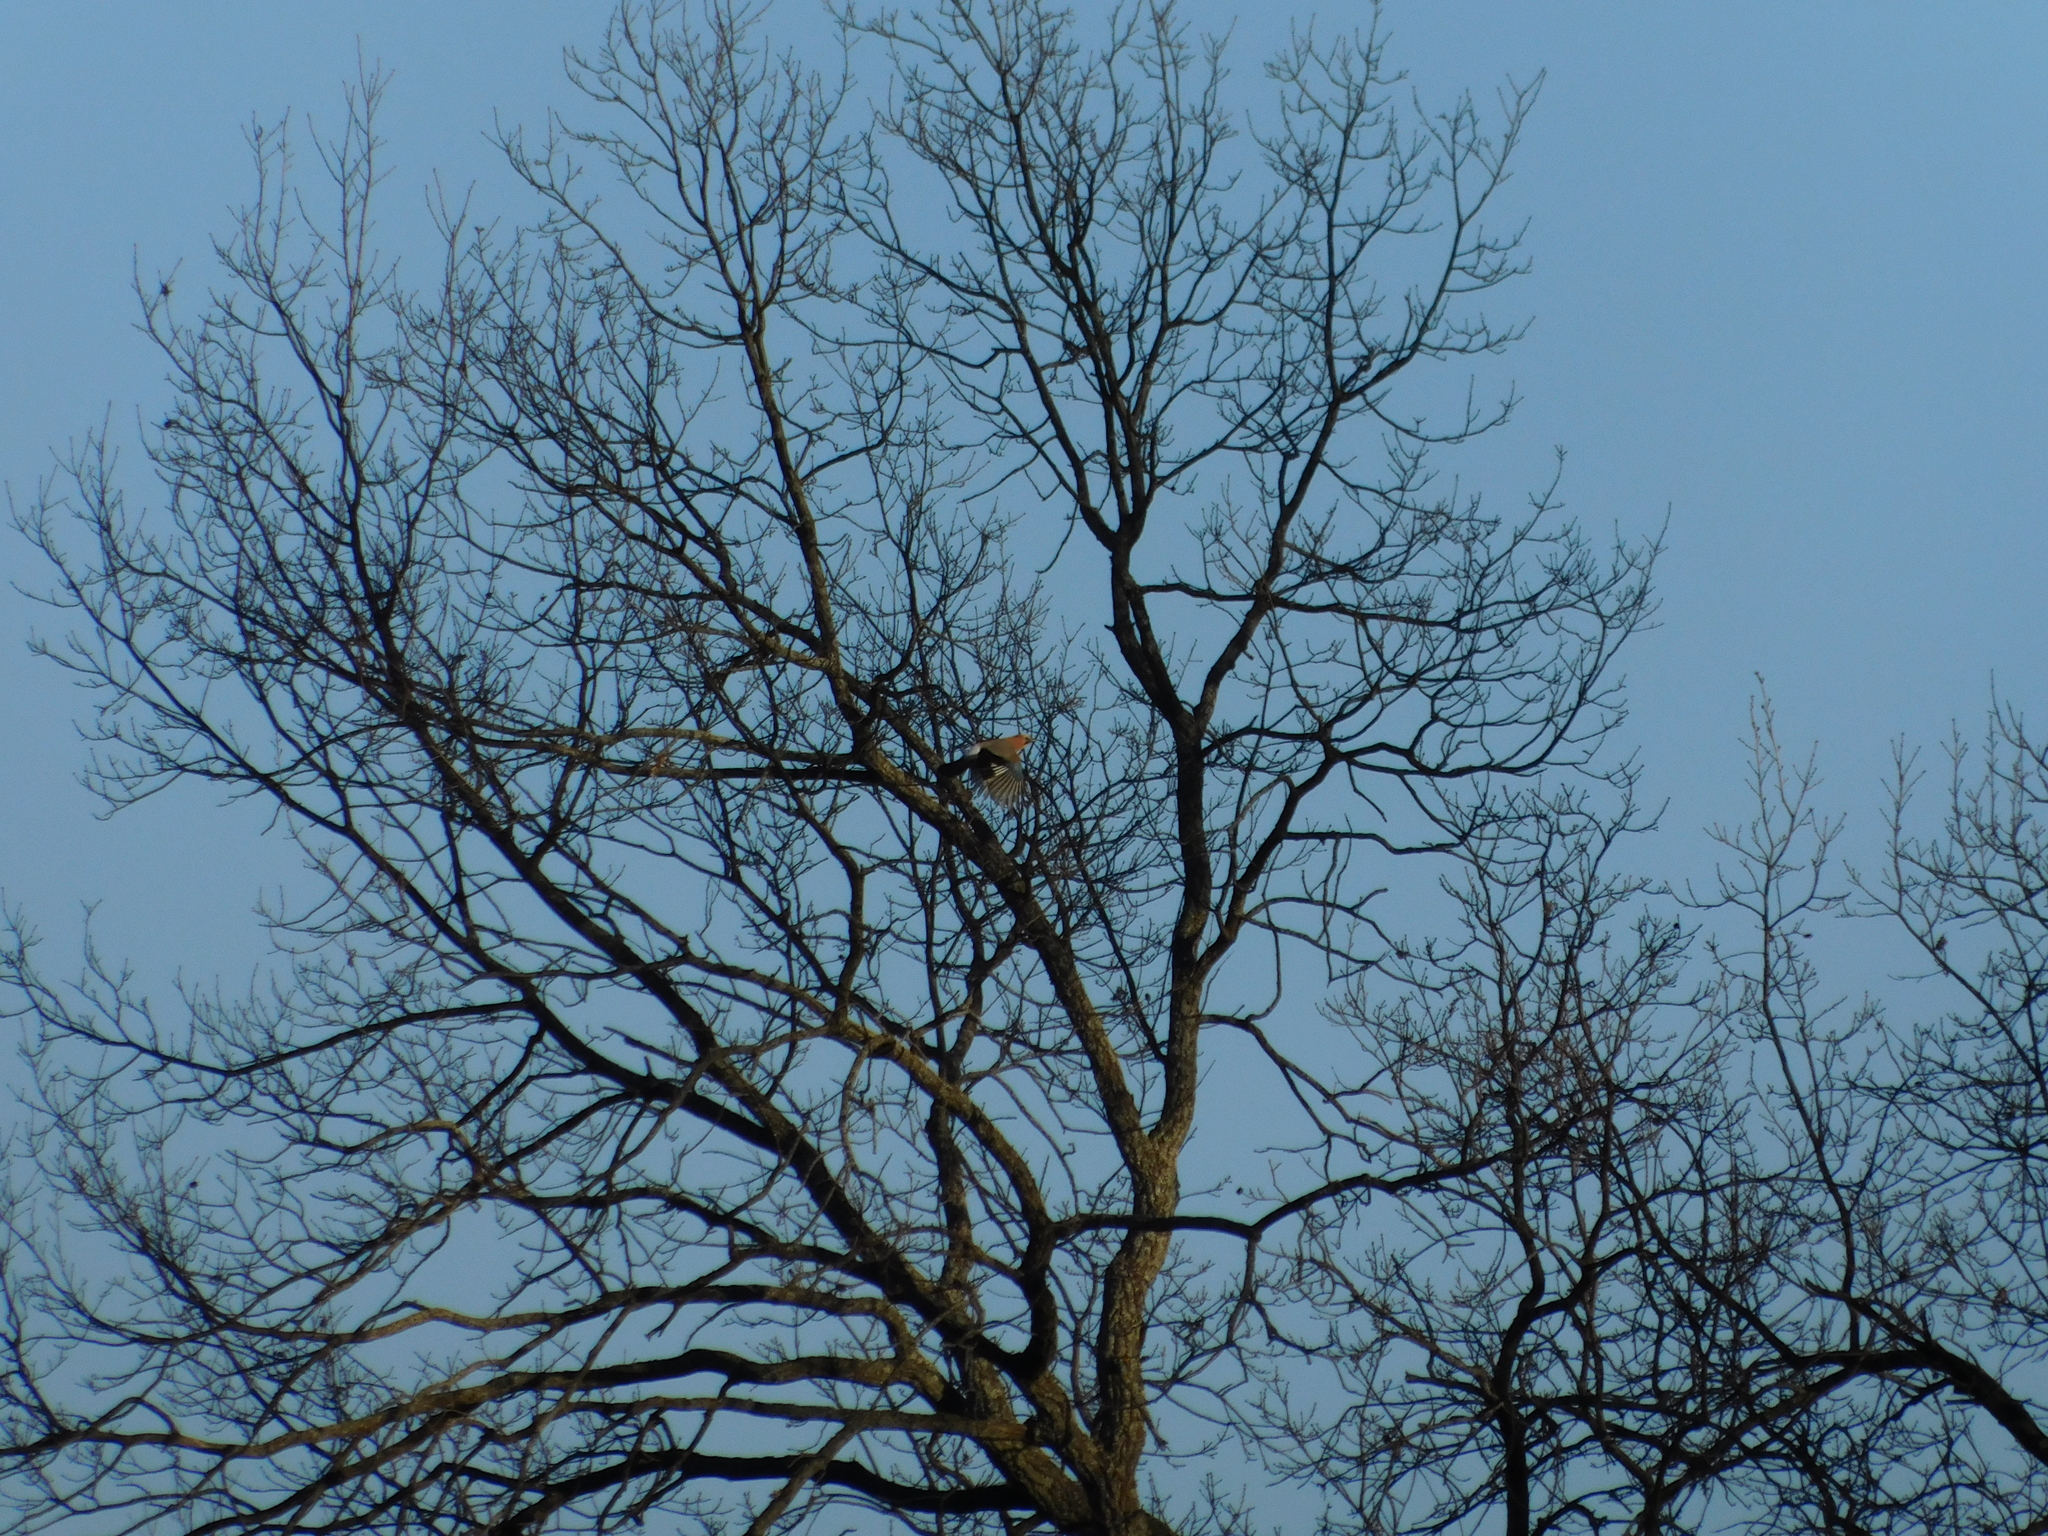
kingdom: Animalia
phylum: Chordata
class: Aves
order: Passeriformes
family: Corvidae
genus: Garrulus
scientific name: Garrulus glandarius
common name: Eurasian jay
